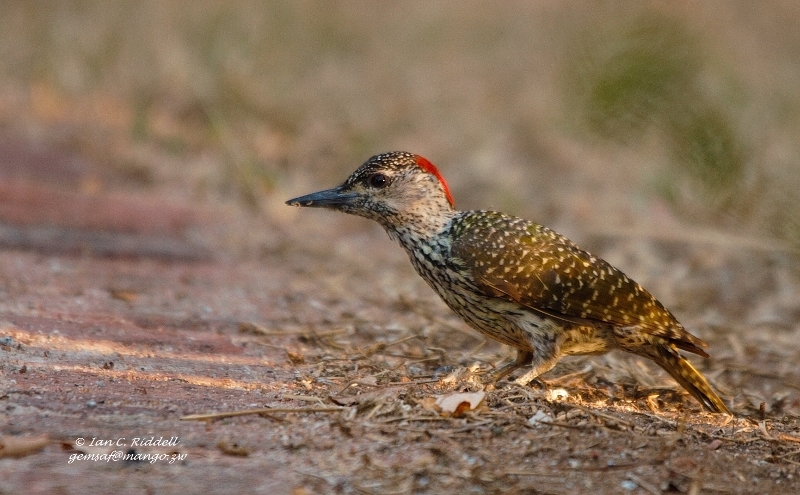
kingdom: Animalia
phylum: Chordata
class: Aves
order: Piciformes
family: Picidae
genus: Campethera
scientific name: Campethera abingoni
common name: Golden-tailed woodpecker
